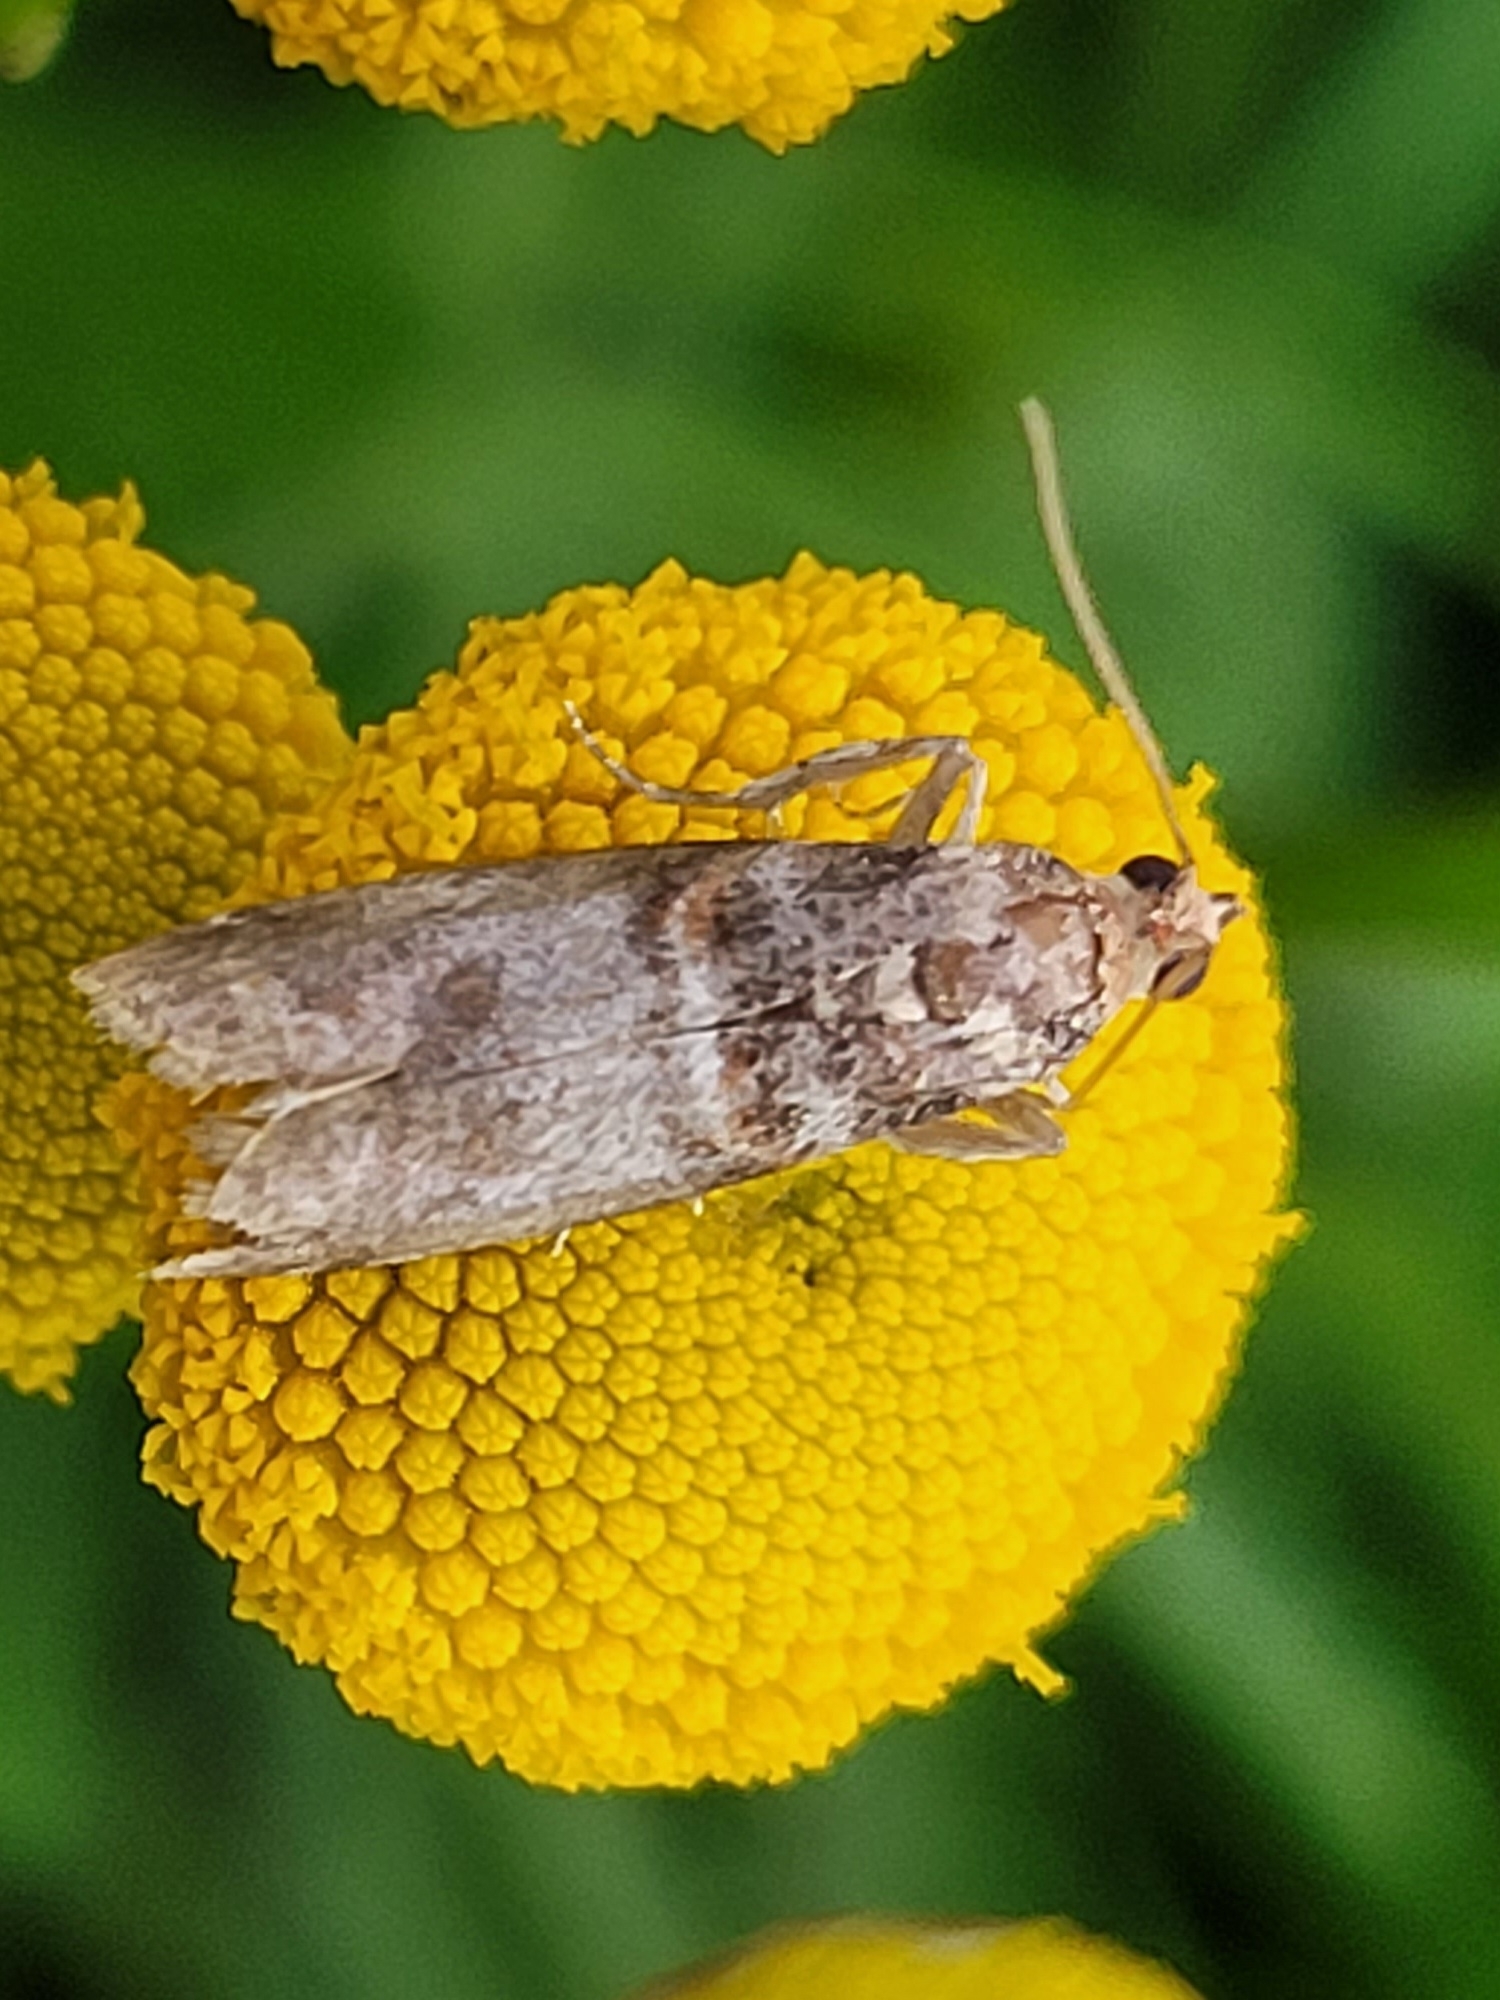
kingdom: Animalia
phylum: Arthropoda
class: Insecta
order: Lepidoptera
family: Pyralidae
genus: Acrobasis
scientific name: Acrobasis advenella
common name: Grey knot-horn
